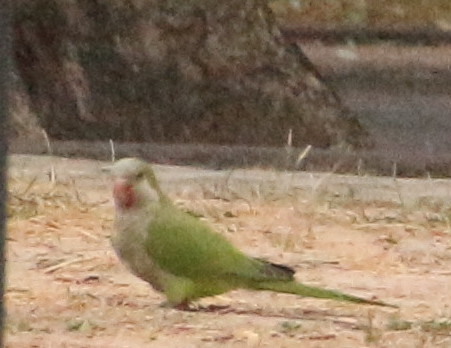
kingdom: Animalia
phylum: Chordata
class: Aves
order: Psittaciformes
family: Psittacidae
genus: Myiopsitta
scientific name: Myiopsitta monachus
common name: Monk parakeet
